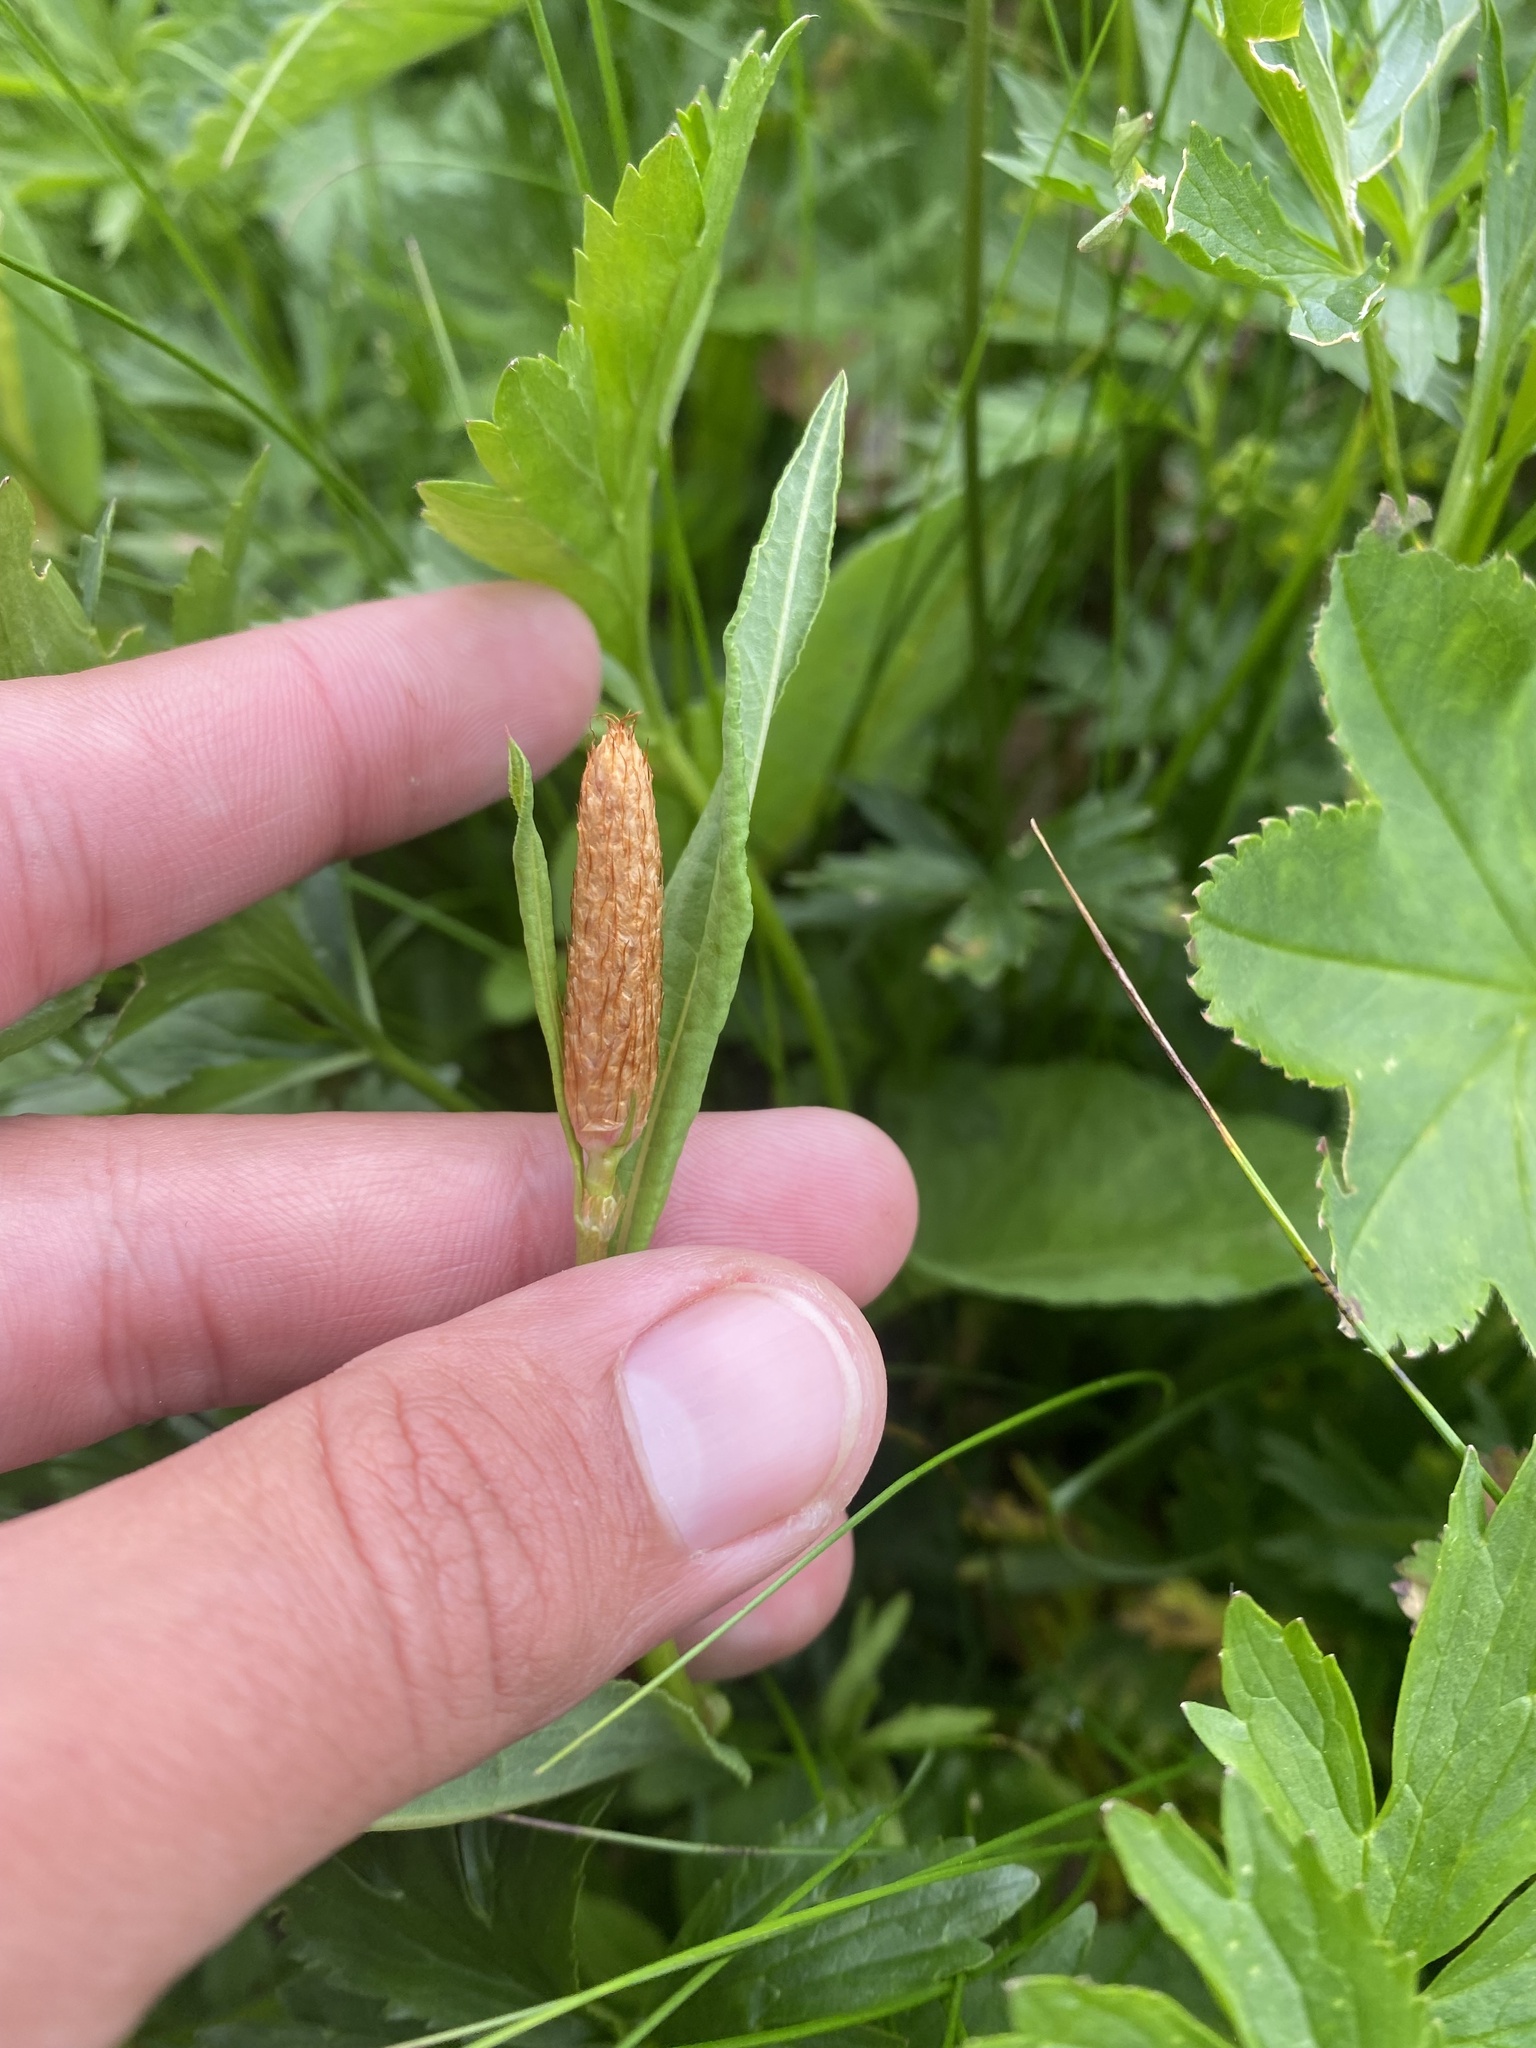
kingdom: Plantae
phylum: Tracheophyta
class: Magnoliopsida
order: Caryophyllales
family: Polygonaceae
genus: Bistorta
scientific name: Bistorta carnea
